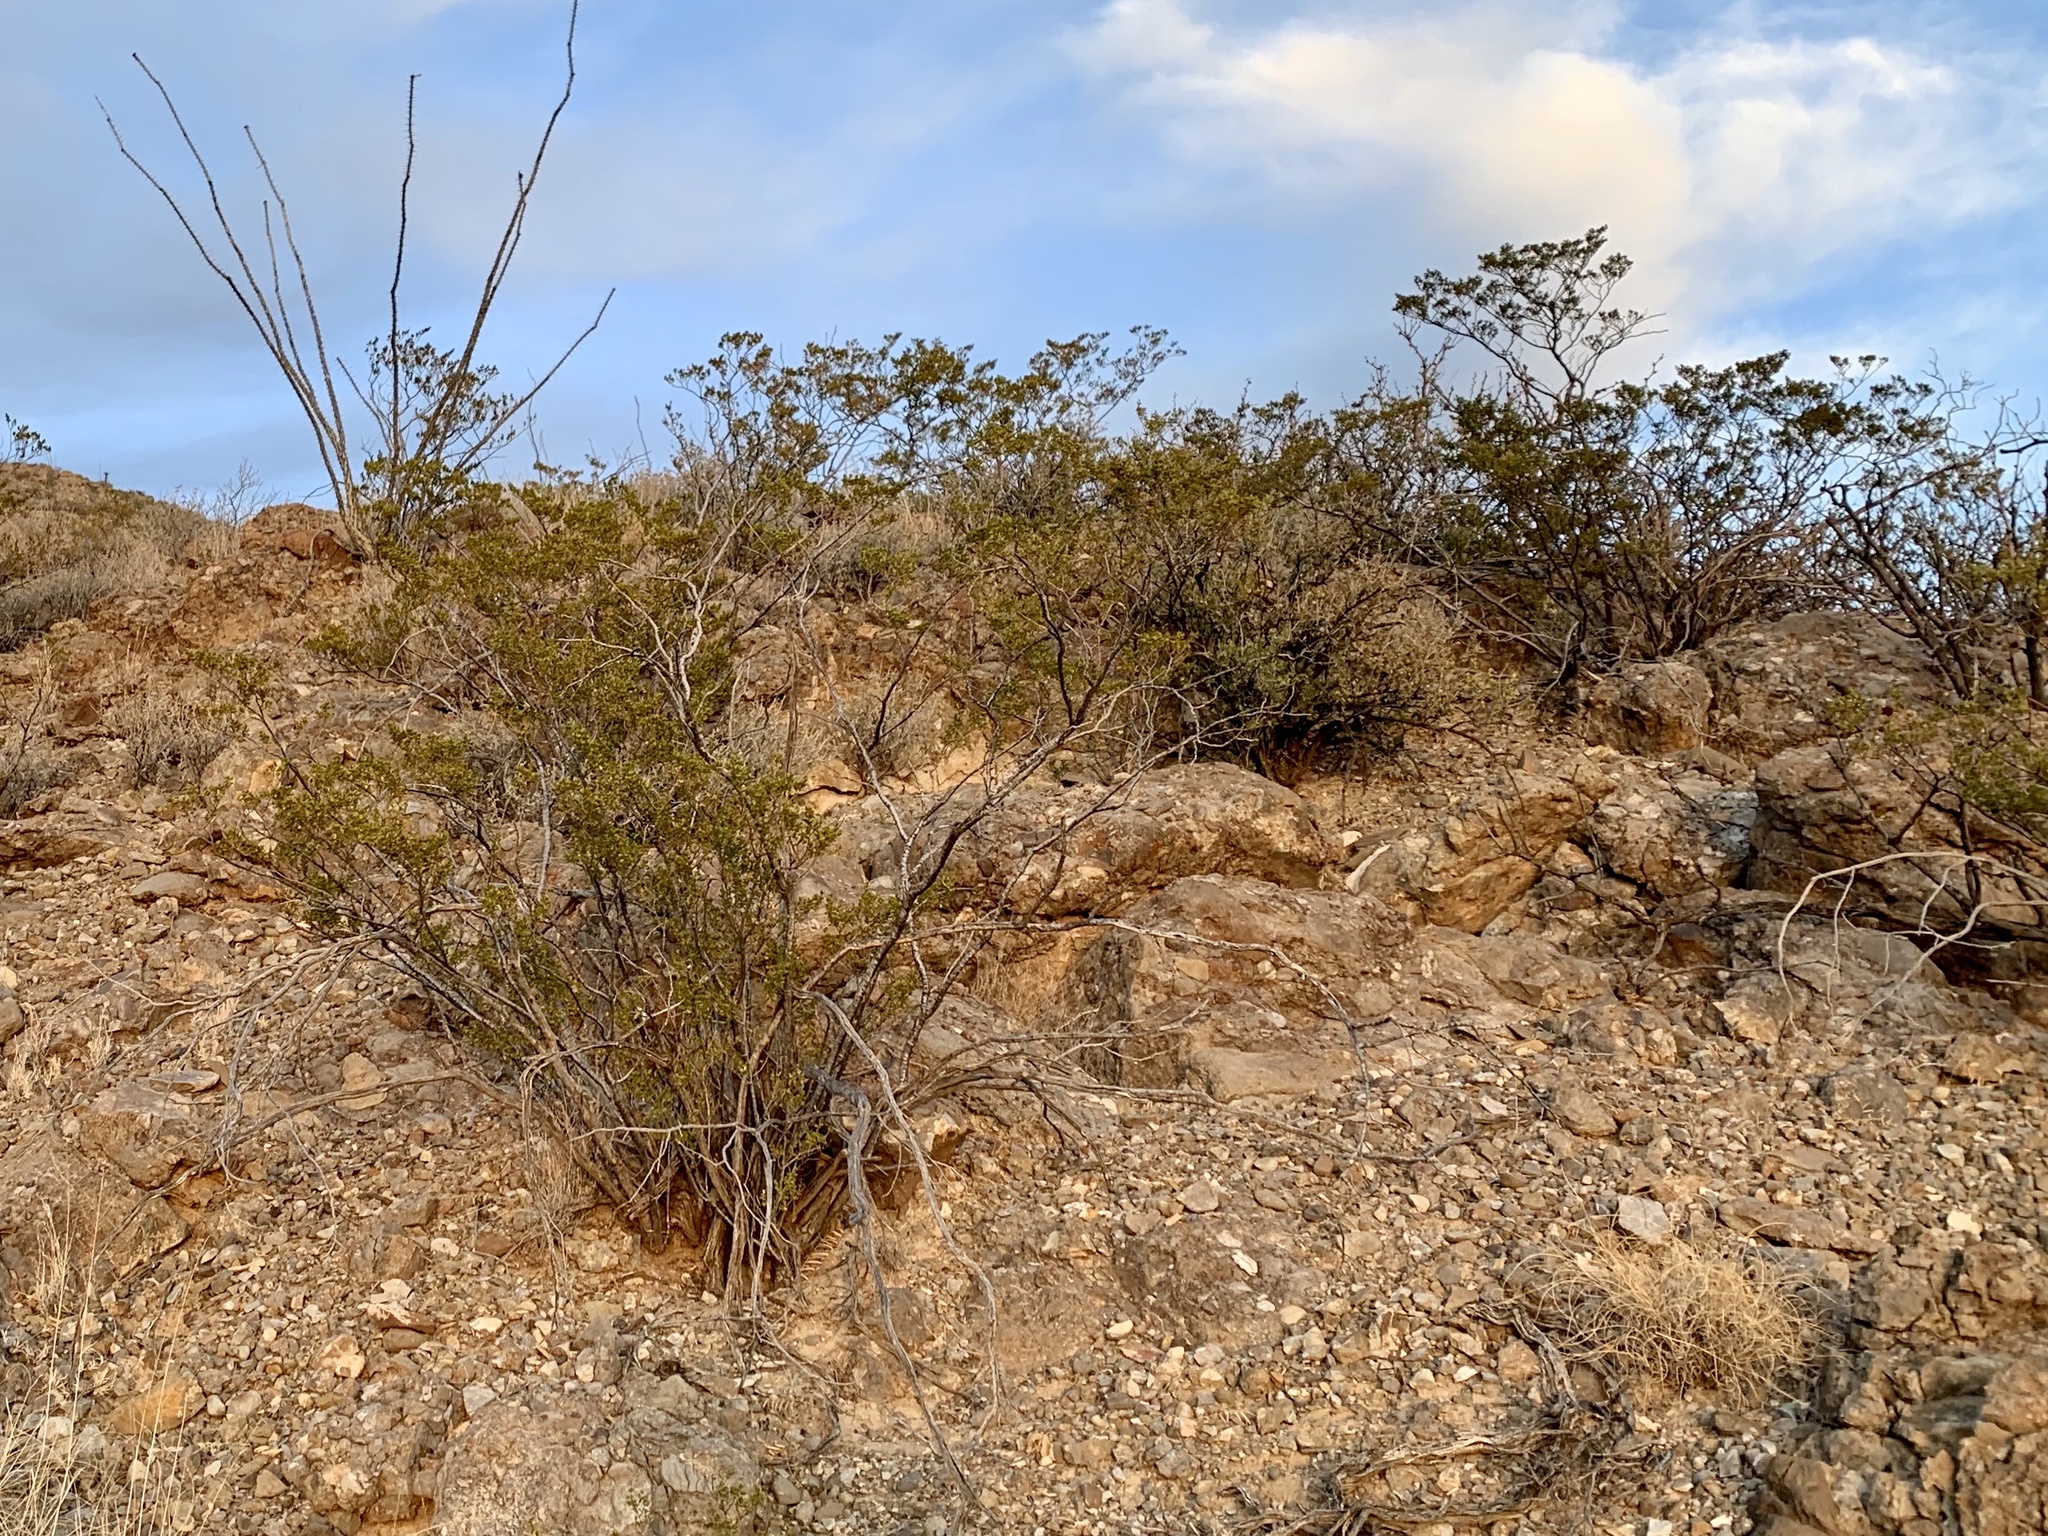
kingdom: Plantae
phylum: Tracheophyta
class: Magnoliopsida
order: Zygophyllales
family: Zygophyllaceae
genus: Larrea
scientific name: Larrea tridentata
